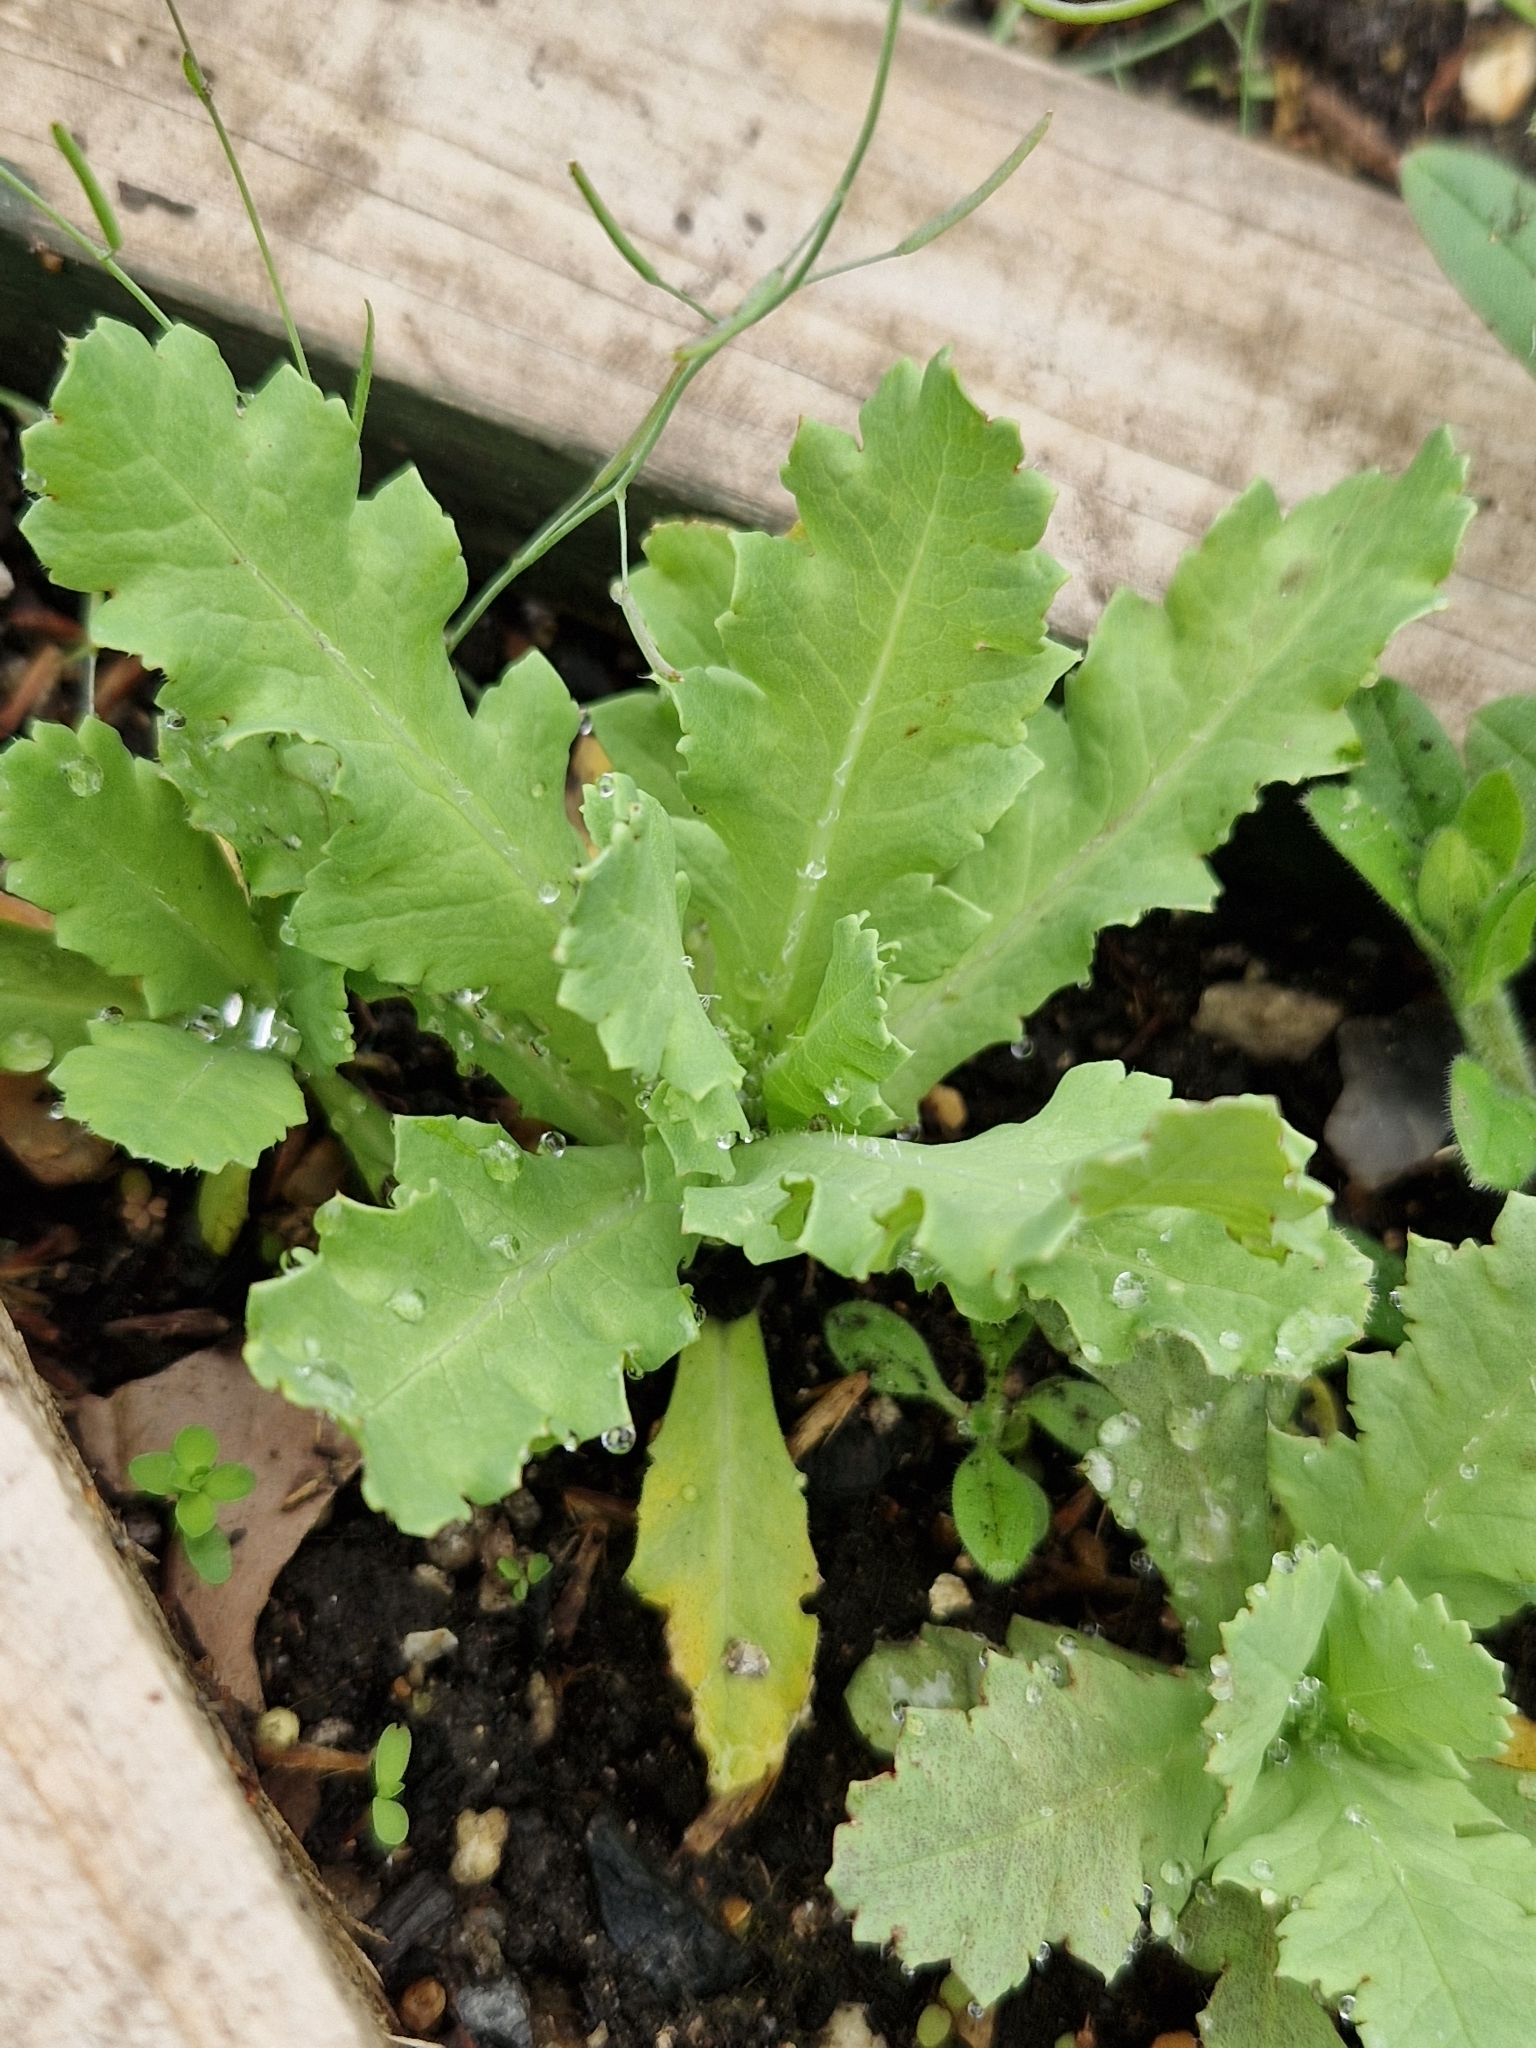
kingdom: Plantae
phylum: Tracheophyta
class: Magnoliopsida
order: Ranunculales
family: Papaveraceae
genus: Papaver
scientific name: Papaver somniferum
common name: Opium poppy
